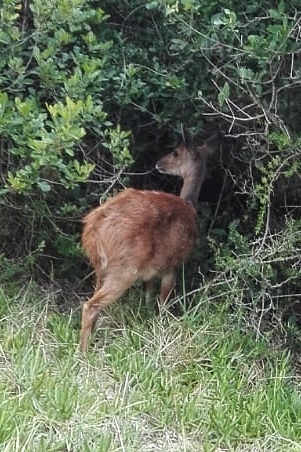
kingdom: Animalia
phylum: Chordata
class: Mammalia
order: Artiodactyla
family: Bovidae
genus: Tragelaphus
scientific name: Tragelaphus scriptus
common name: Bushbuck
